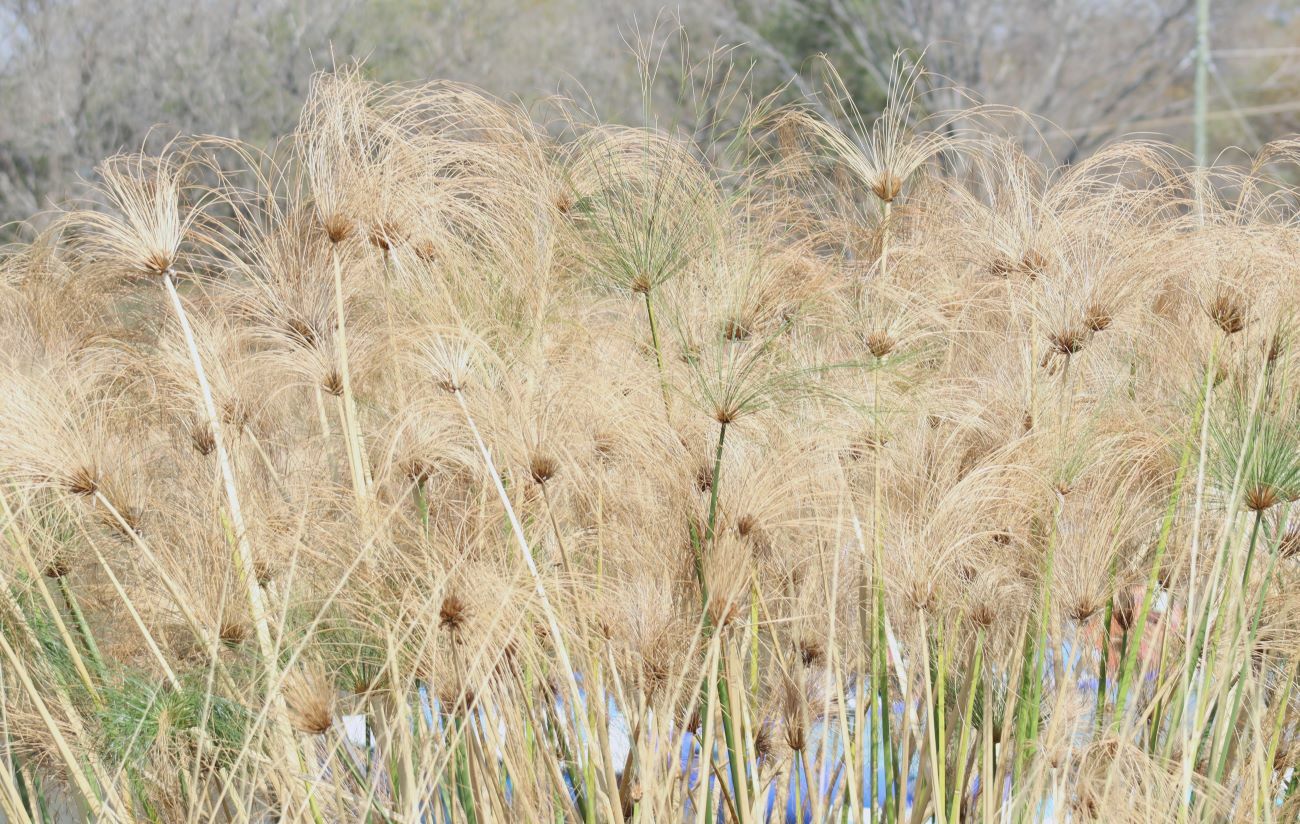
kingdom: Plantae
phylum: Tracheophyta
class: Liliopsida
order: Poales
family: Cyperaceae
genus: Cyperus
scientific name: Cyperus papyrus
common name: Papyrus
